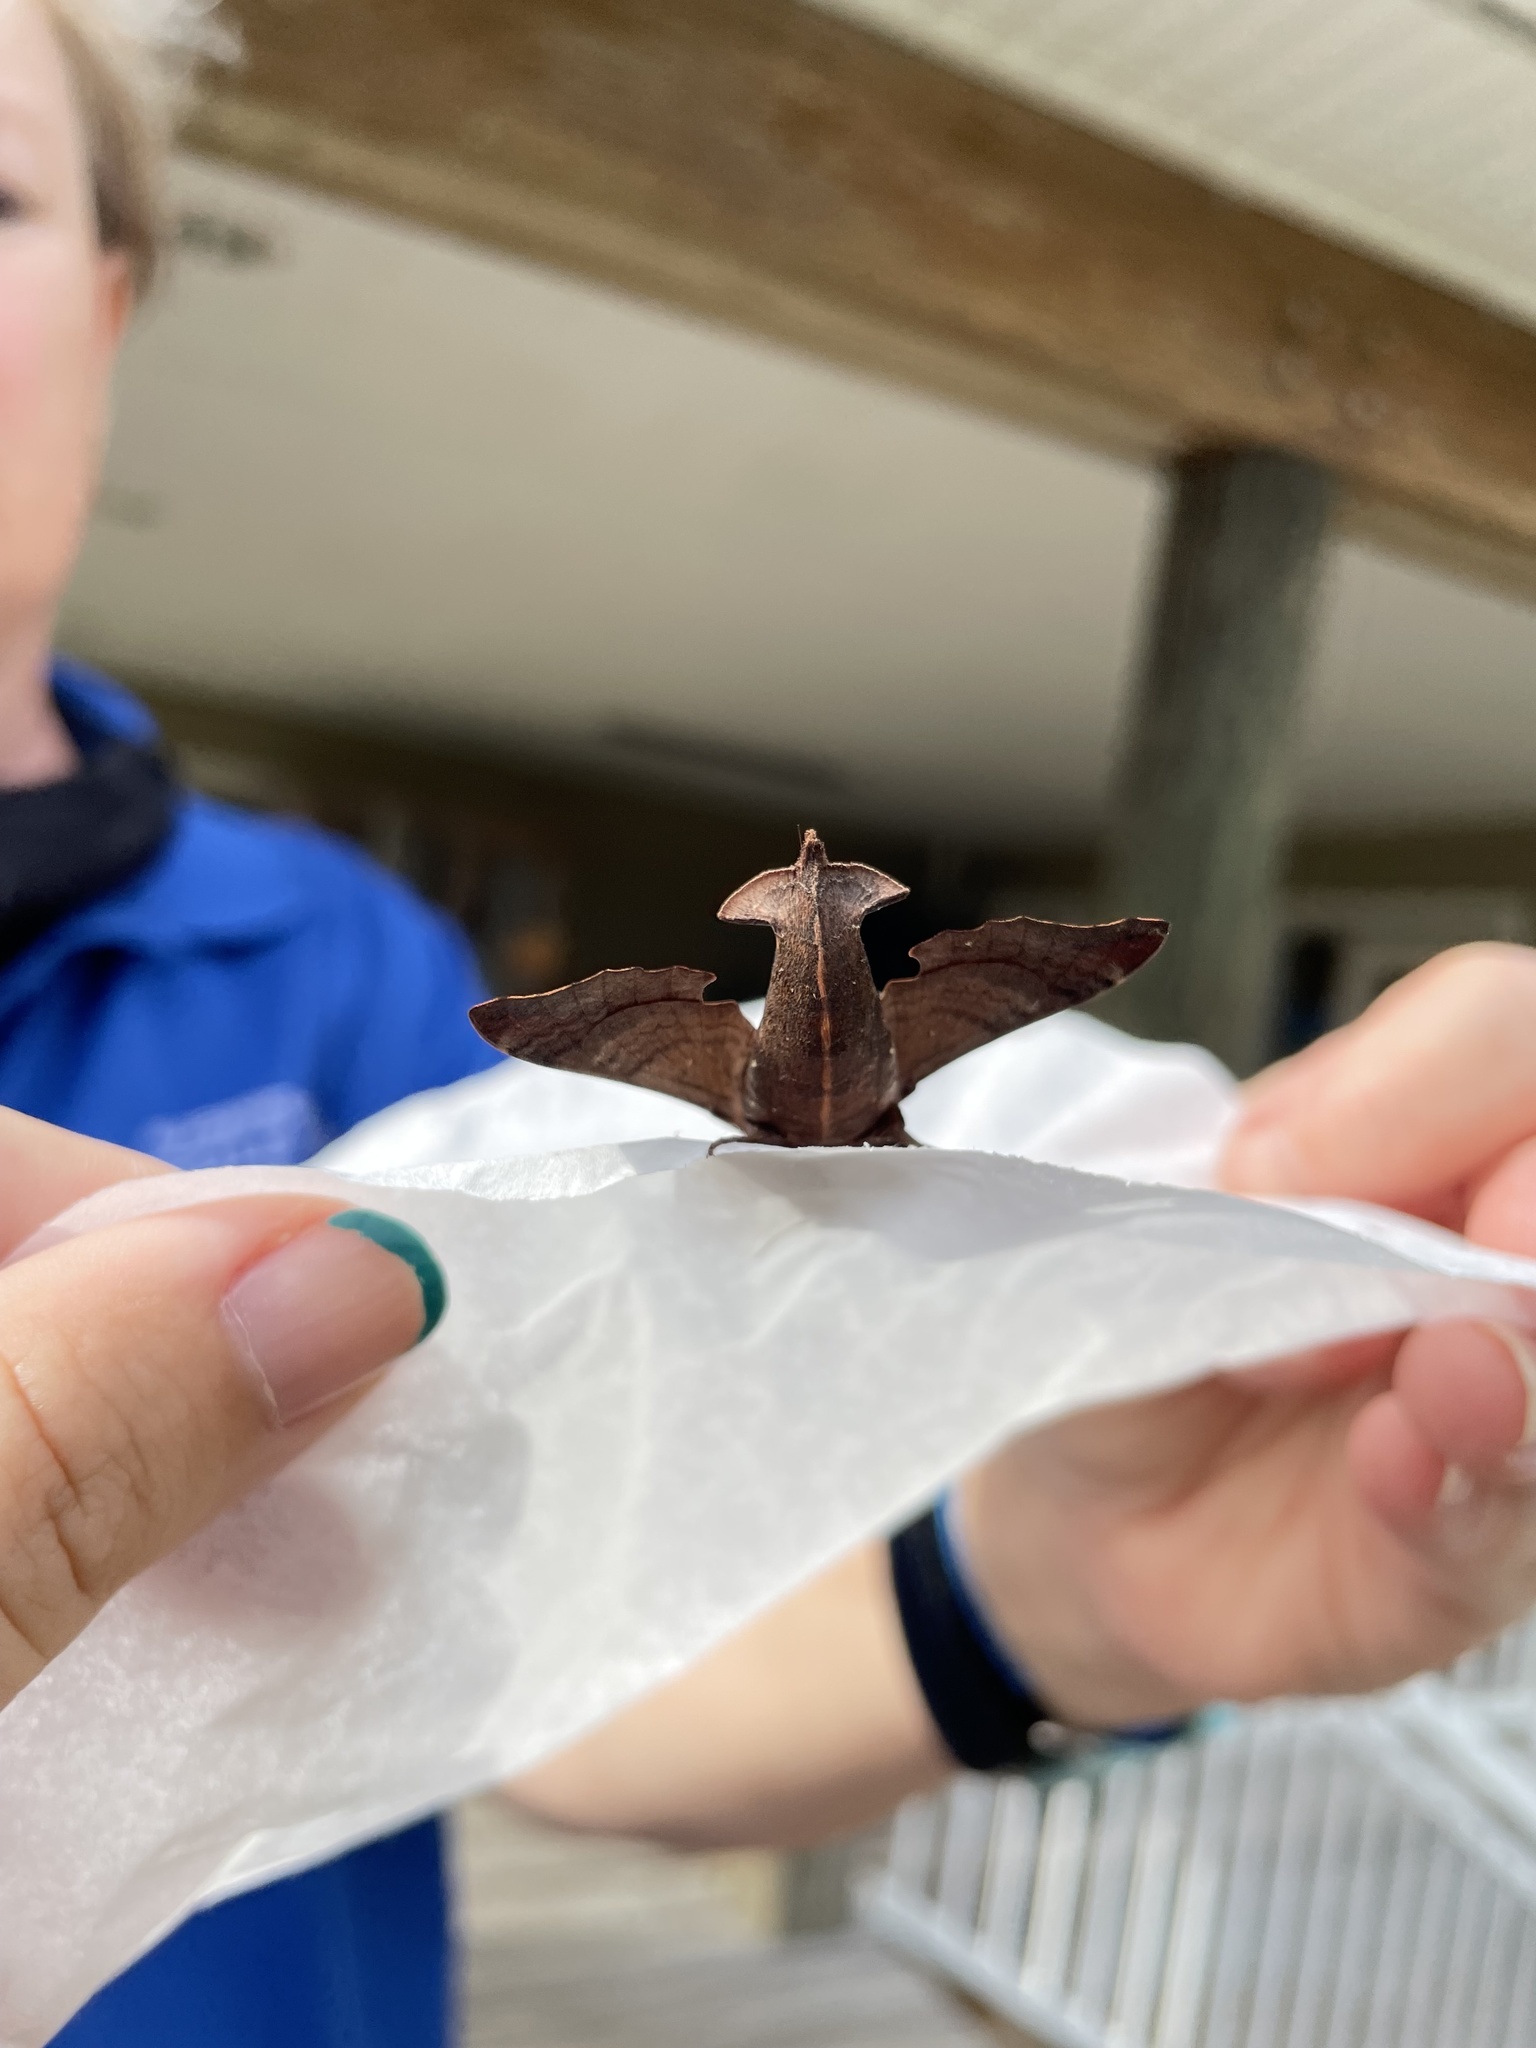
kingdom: Animalia
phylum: Arthropoda
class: Insecta
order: Lepidoptera
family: Sphingidae
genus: Enyo
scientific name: Enyo lugubris
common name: Mournful sphinx
